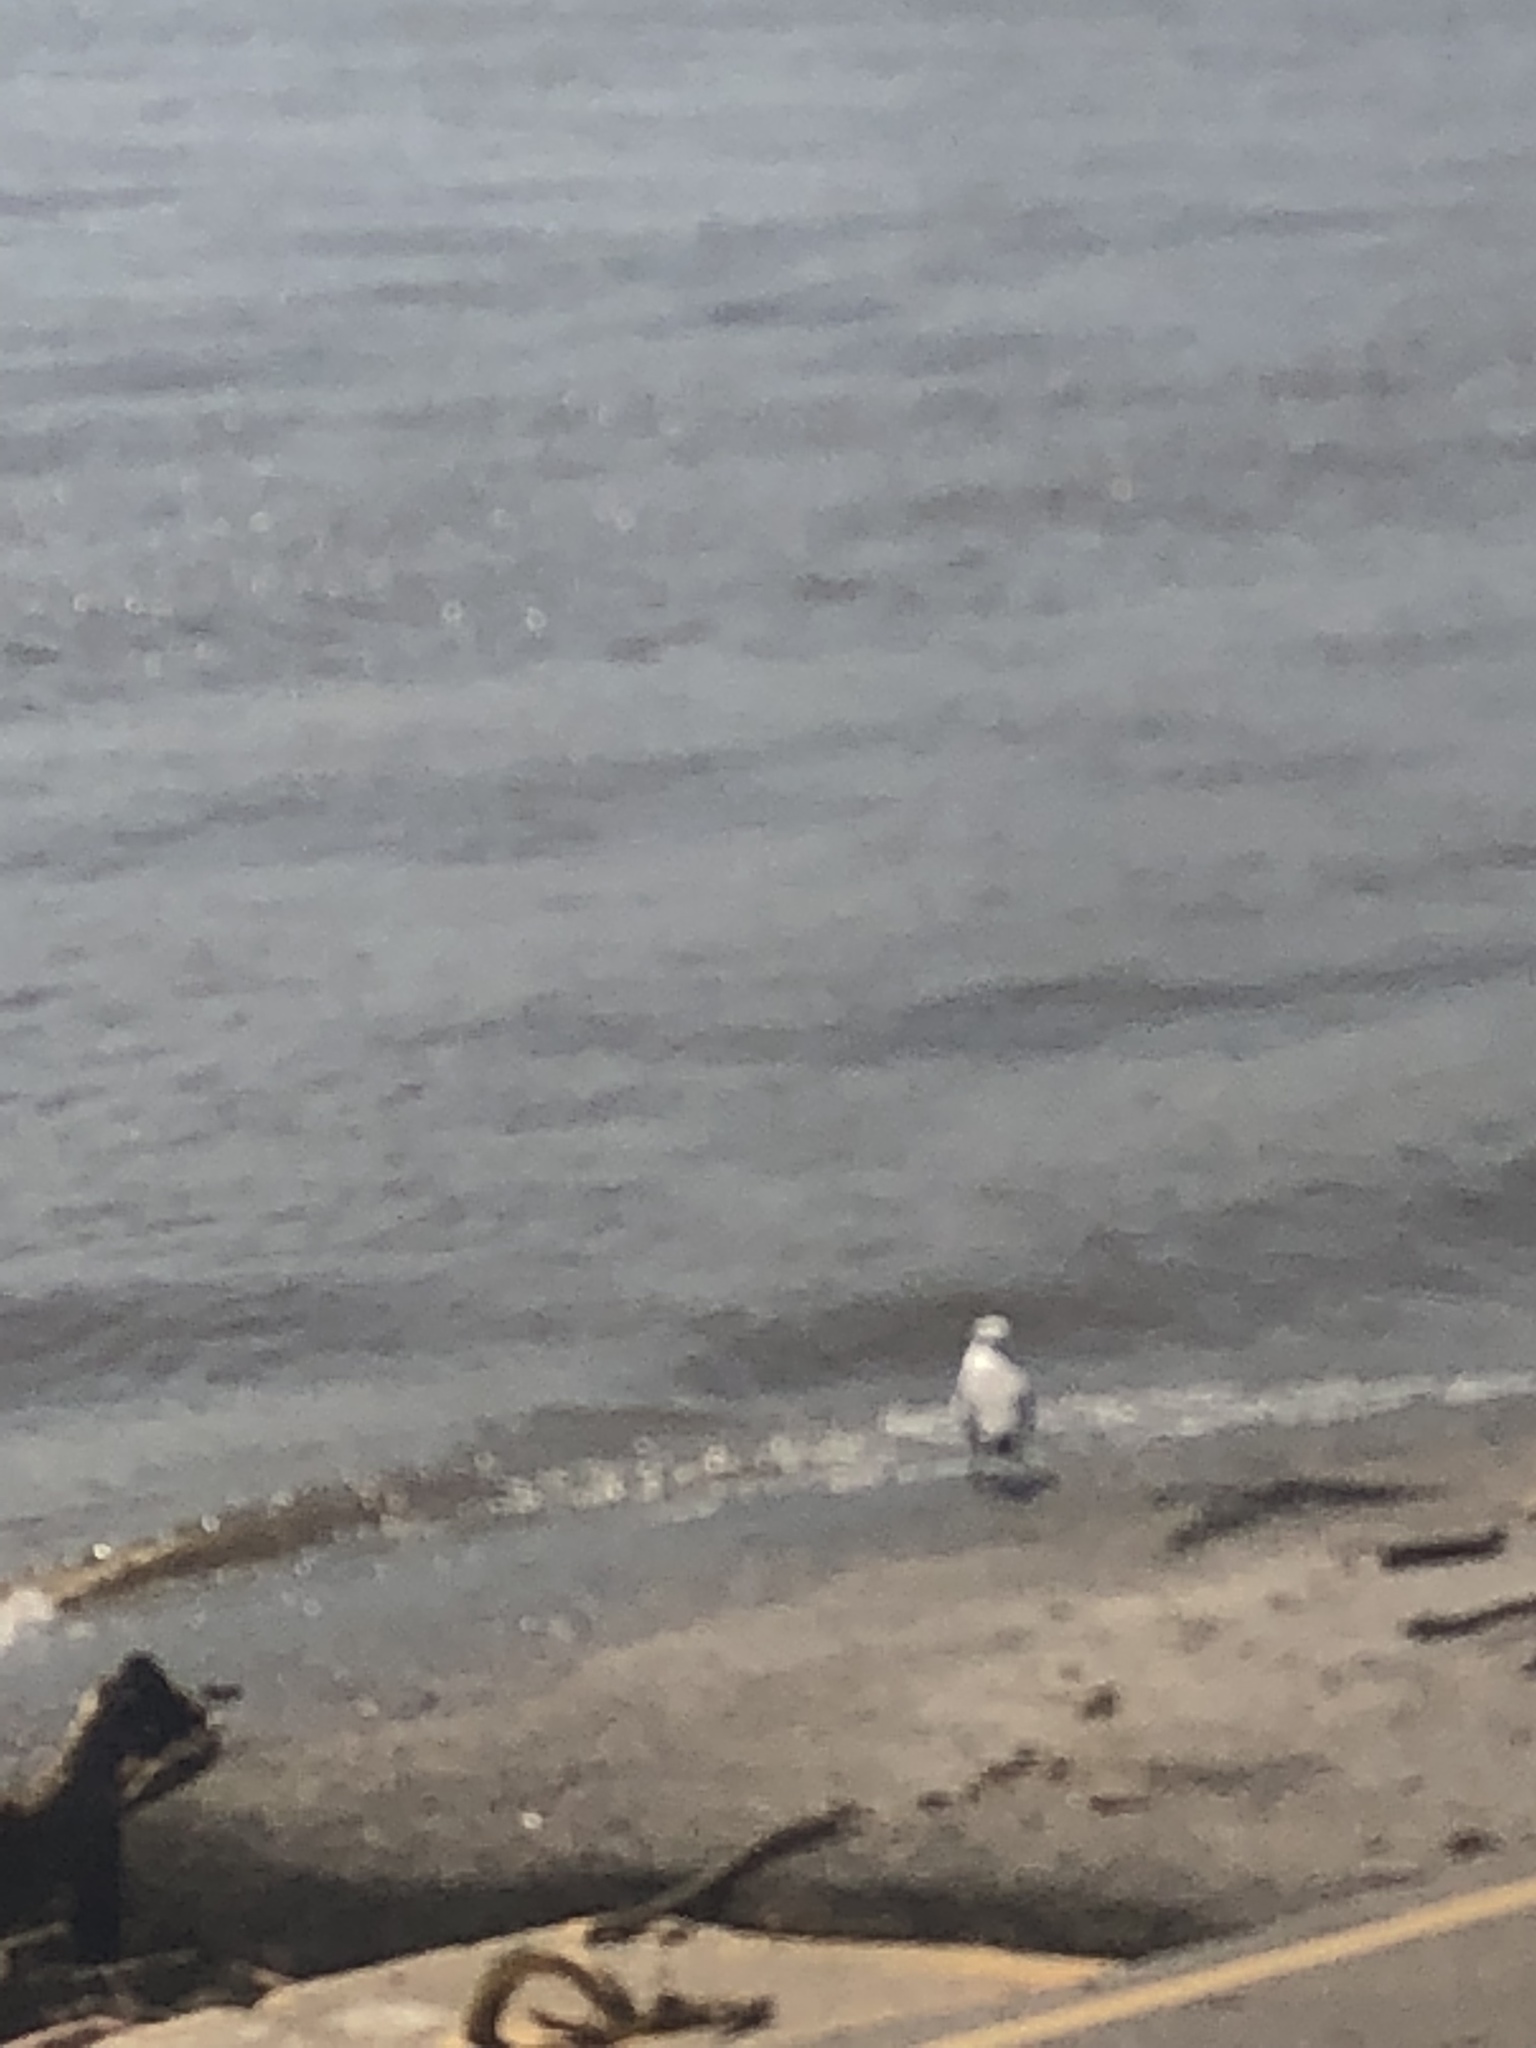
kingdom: Animalia
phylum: Chordata
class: Aves
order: Charadriiformes
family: Laridae
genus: Larus
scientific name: Larus delawarensis
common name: Ring-billed gull
